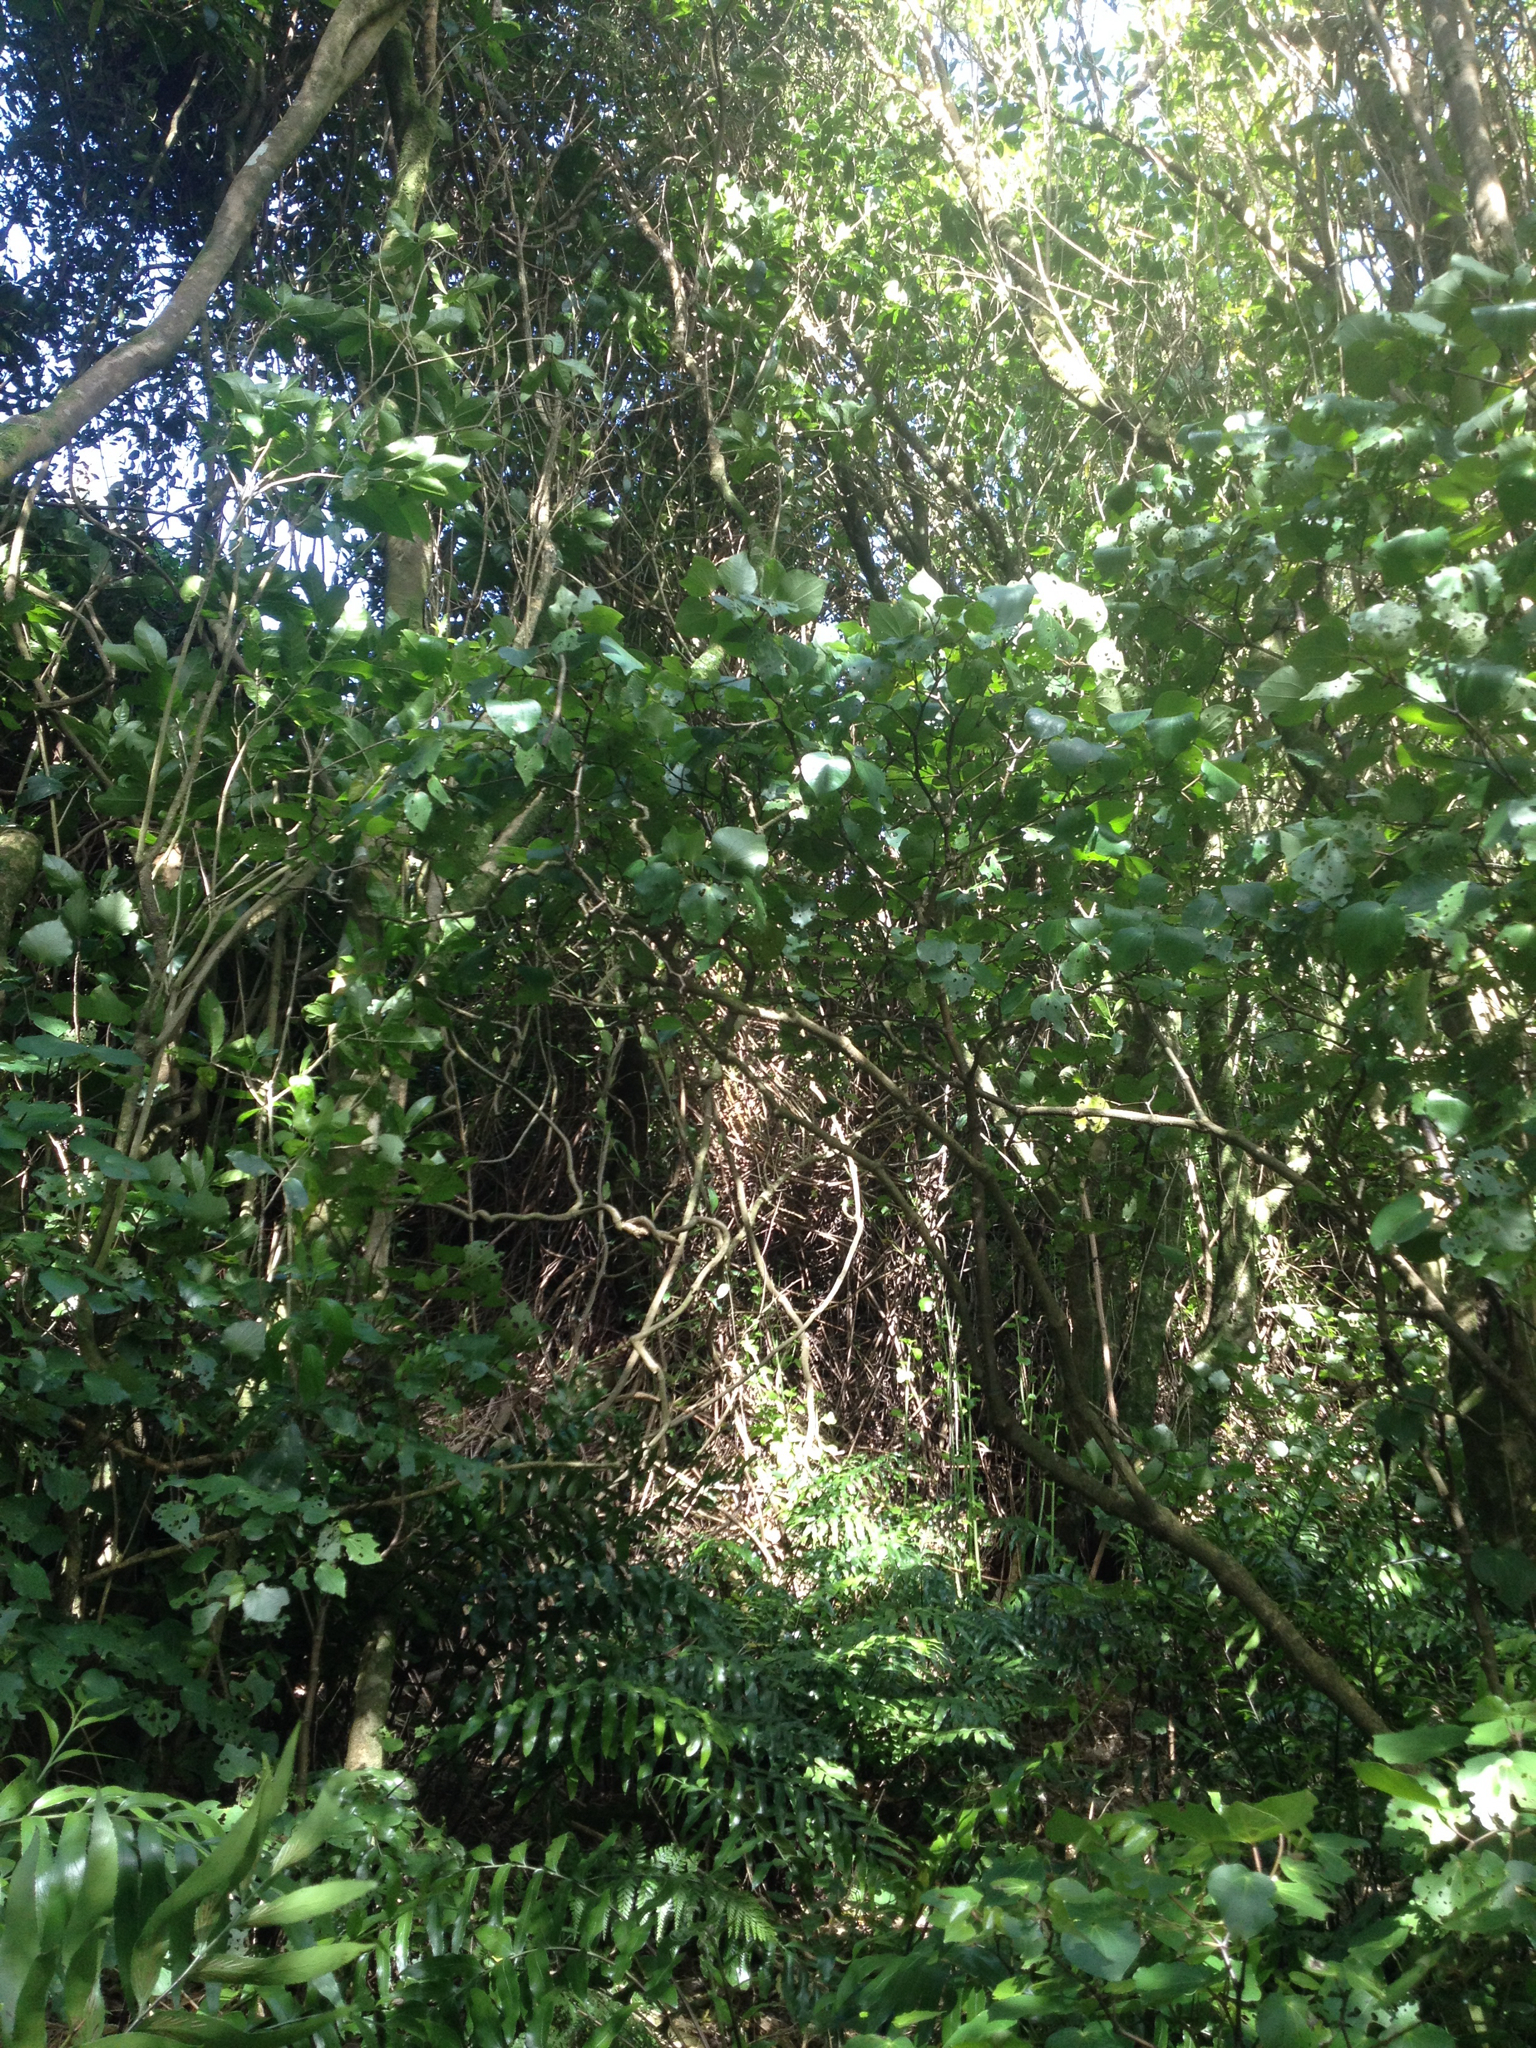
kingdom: Plantae
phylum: Tracheophyta
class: Magnoliopsida
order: Asterales
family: Asteraceae
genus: Senecio
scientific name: Senecio angulatus
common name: Climbing groundsel
